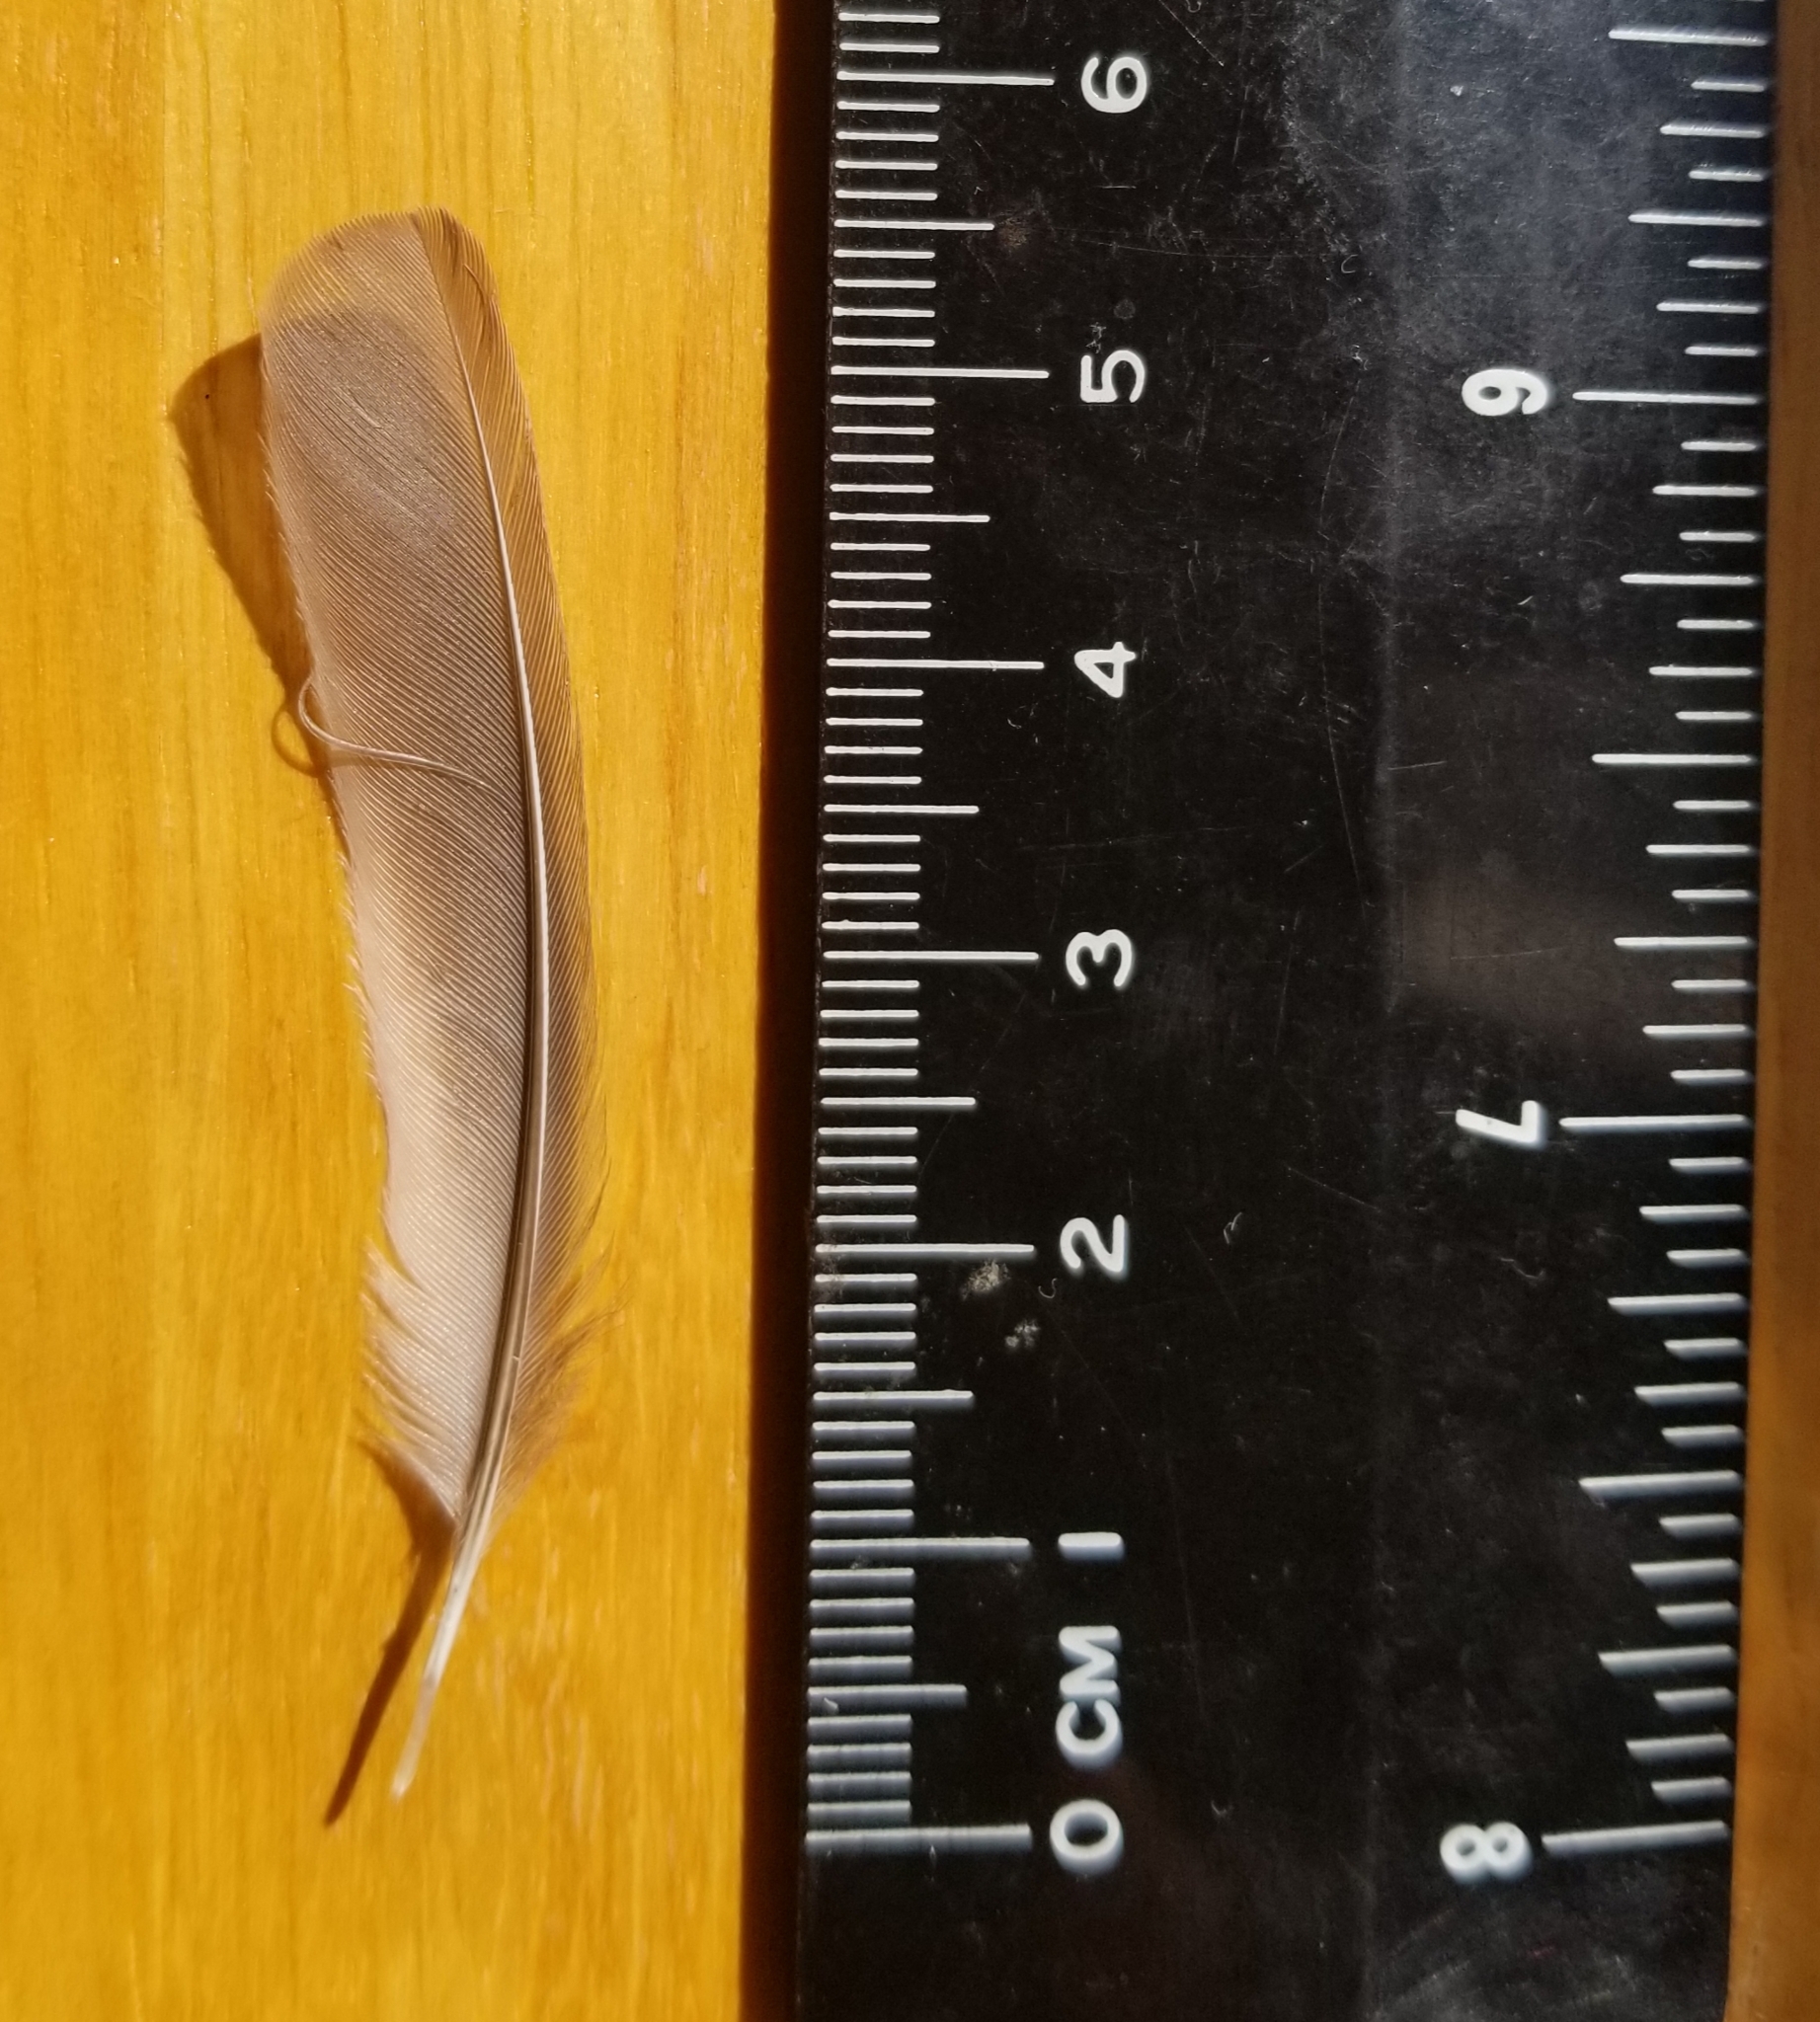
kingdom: Animalia
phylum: Chordata
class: Aves
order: Passeriformes
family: Parulidae
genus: Setophaga
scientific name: Setophaga
